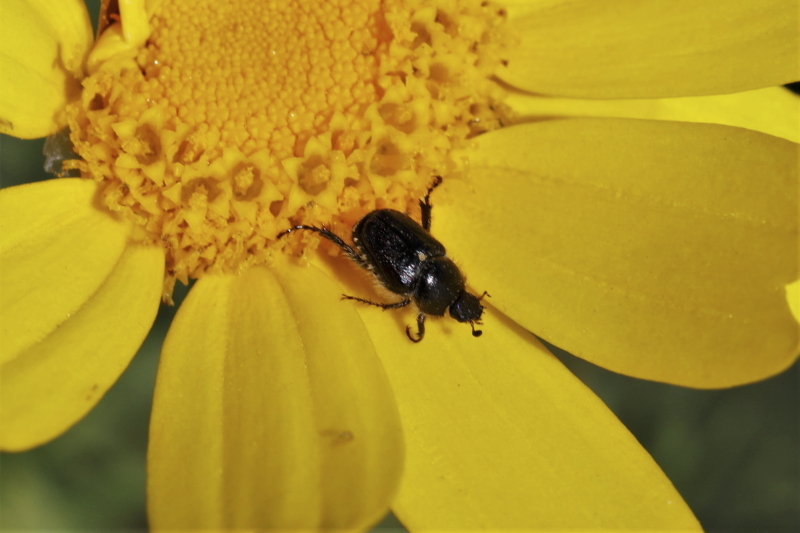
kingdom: Animalia
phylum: Arthropoda
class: Insecta
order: Coleoptera
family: Scarabaeidae
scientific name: Scarabaeidae
